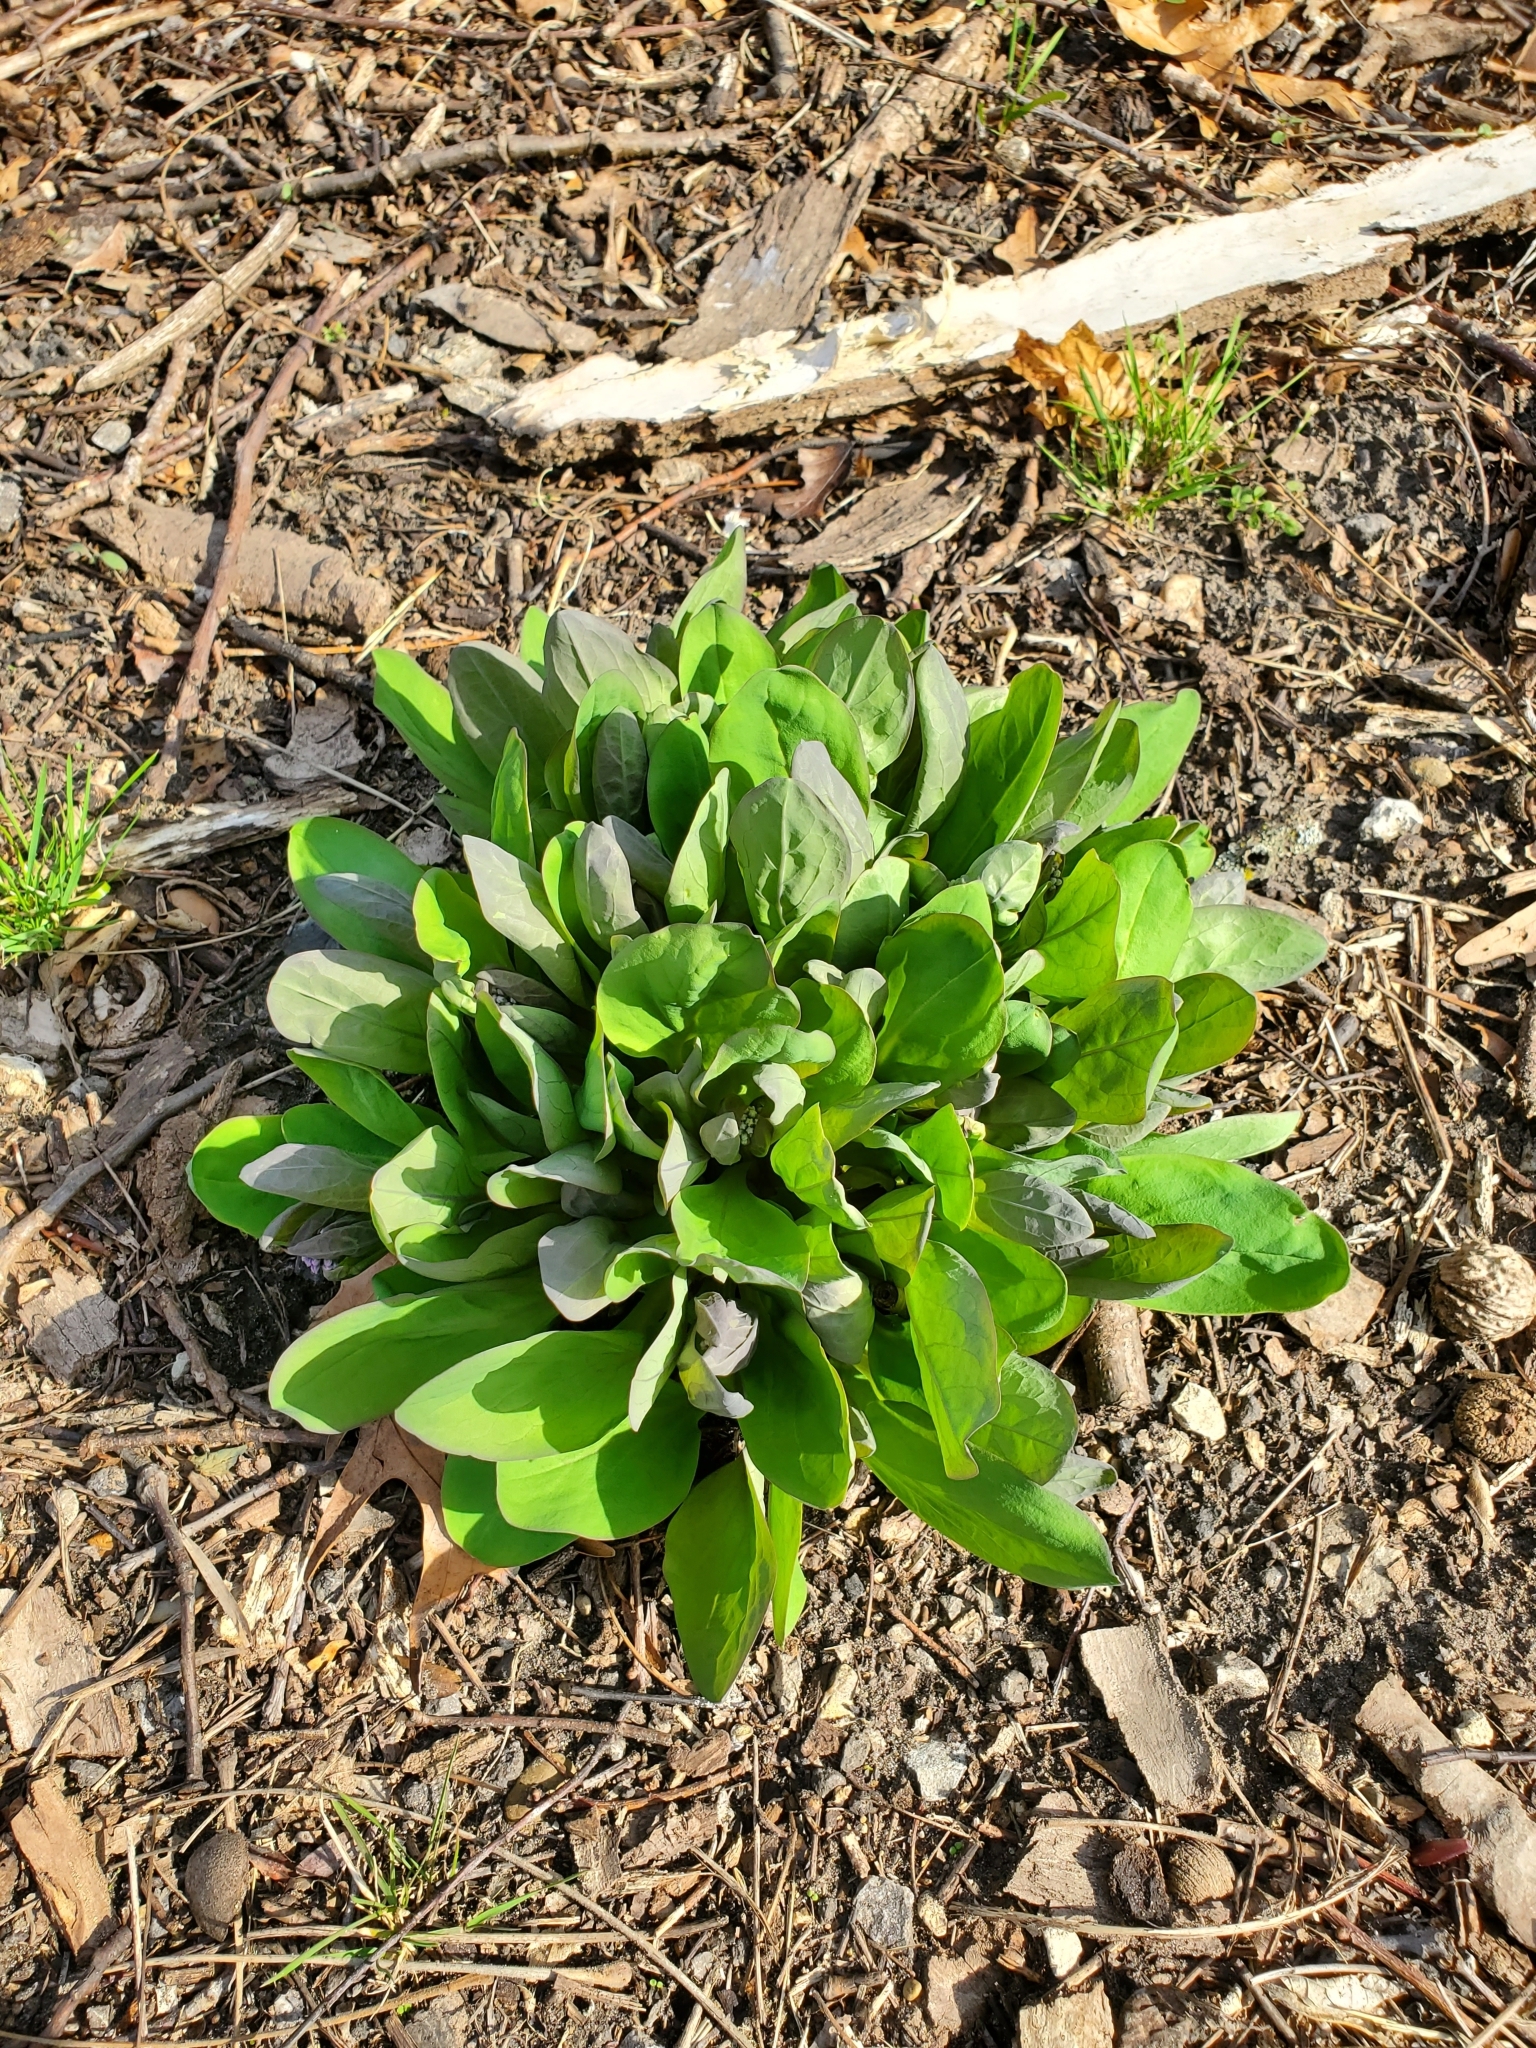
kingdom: Plantae
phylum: Tracheophyta
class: Magnoliopsida
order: Boraginales
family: Boraginaceae
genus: Mertensia
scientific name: Mertensia virginica
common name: Virginia bluebells
